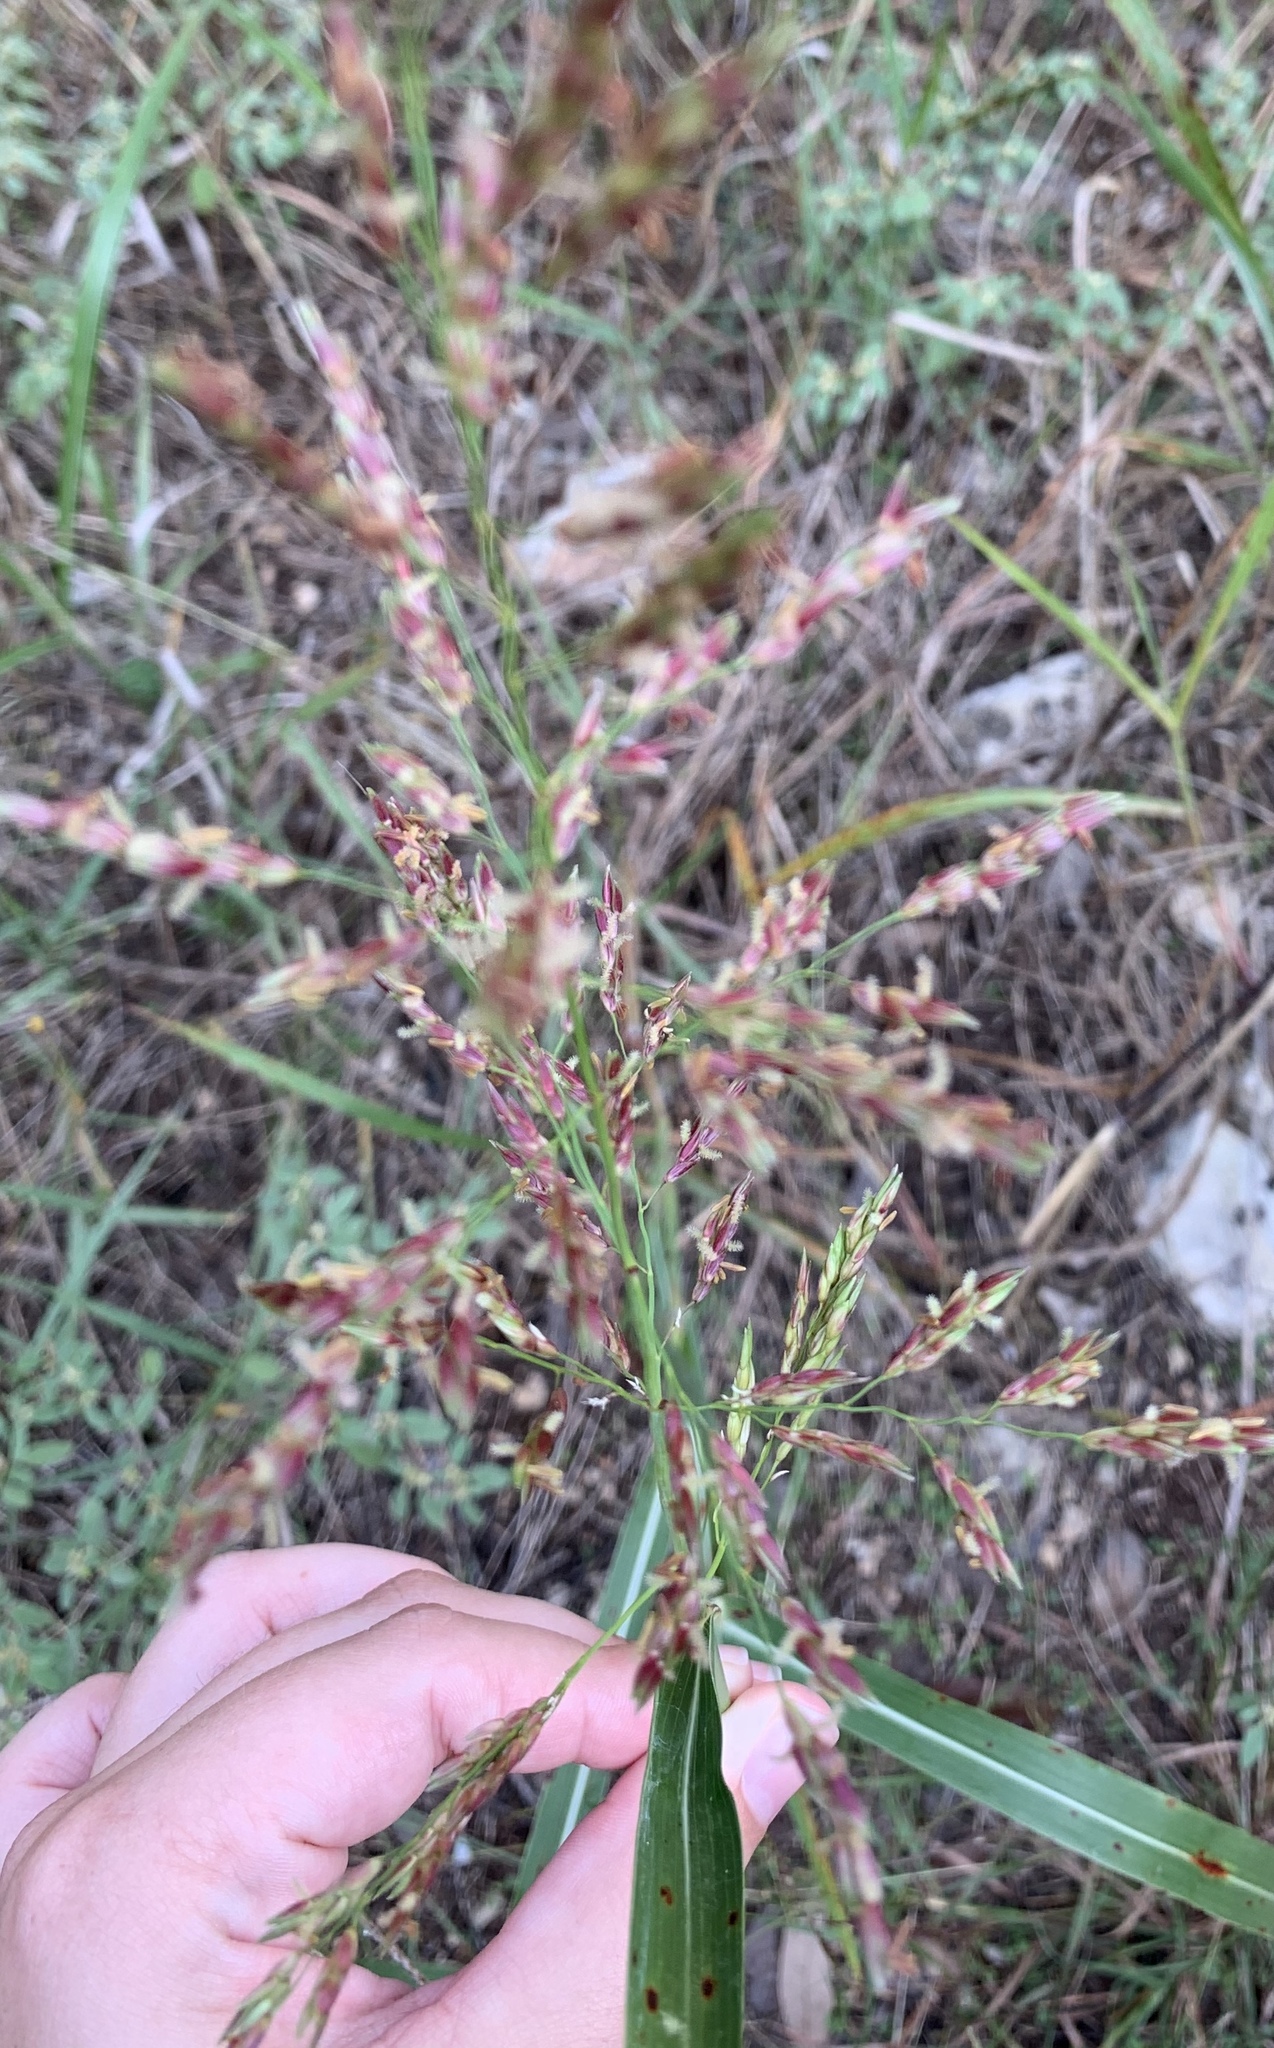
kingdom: Plantae
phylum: Tracheophyta
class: Liliopsida
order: Poales
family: Poaceae
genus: Sorghum
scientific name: Sorghum halepense
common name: Johnson-grass
